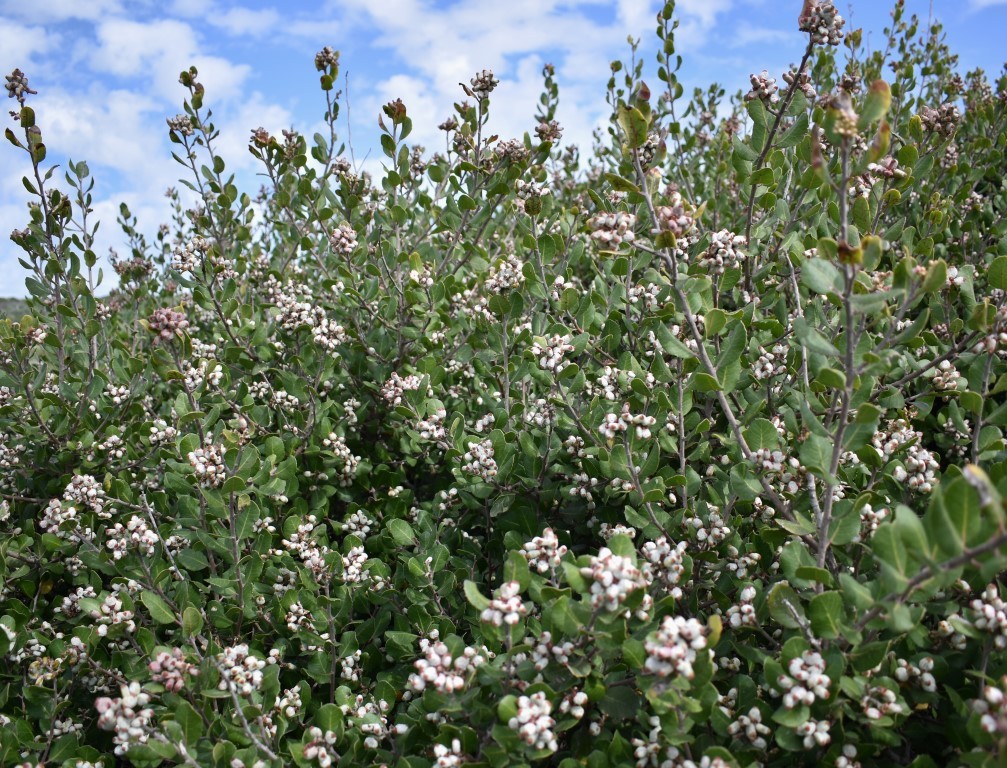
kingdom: Plantae
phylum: Tracheophyta
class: Magnoliopsida
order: Sapindales
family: Anacardiaceae
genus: Rhus
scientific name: Rhus integrifolia
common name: Lemonade sumac
